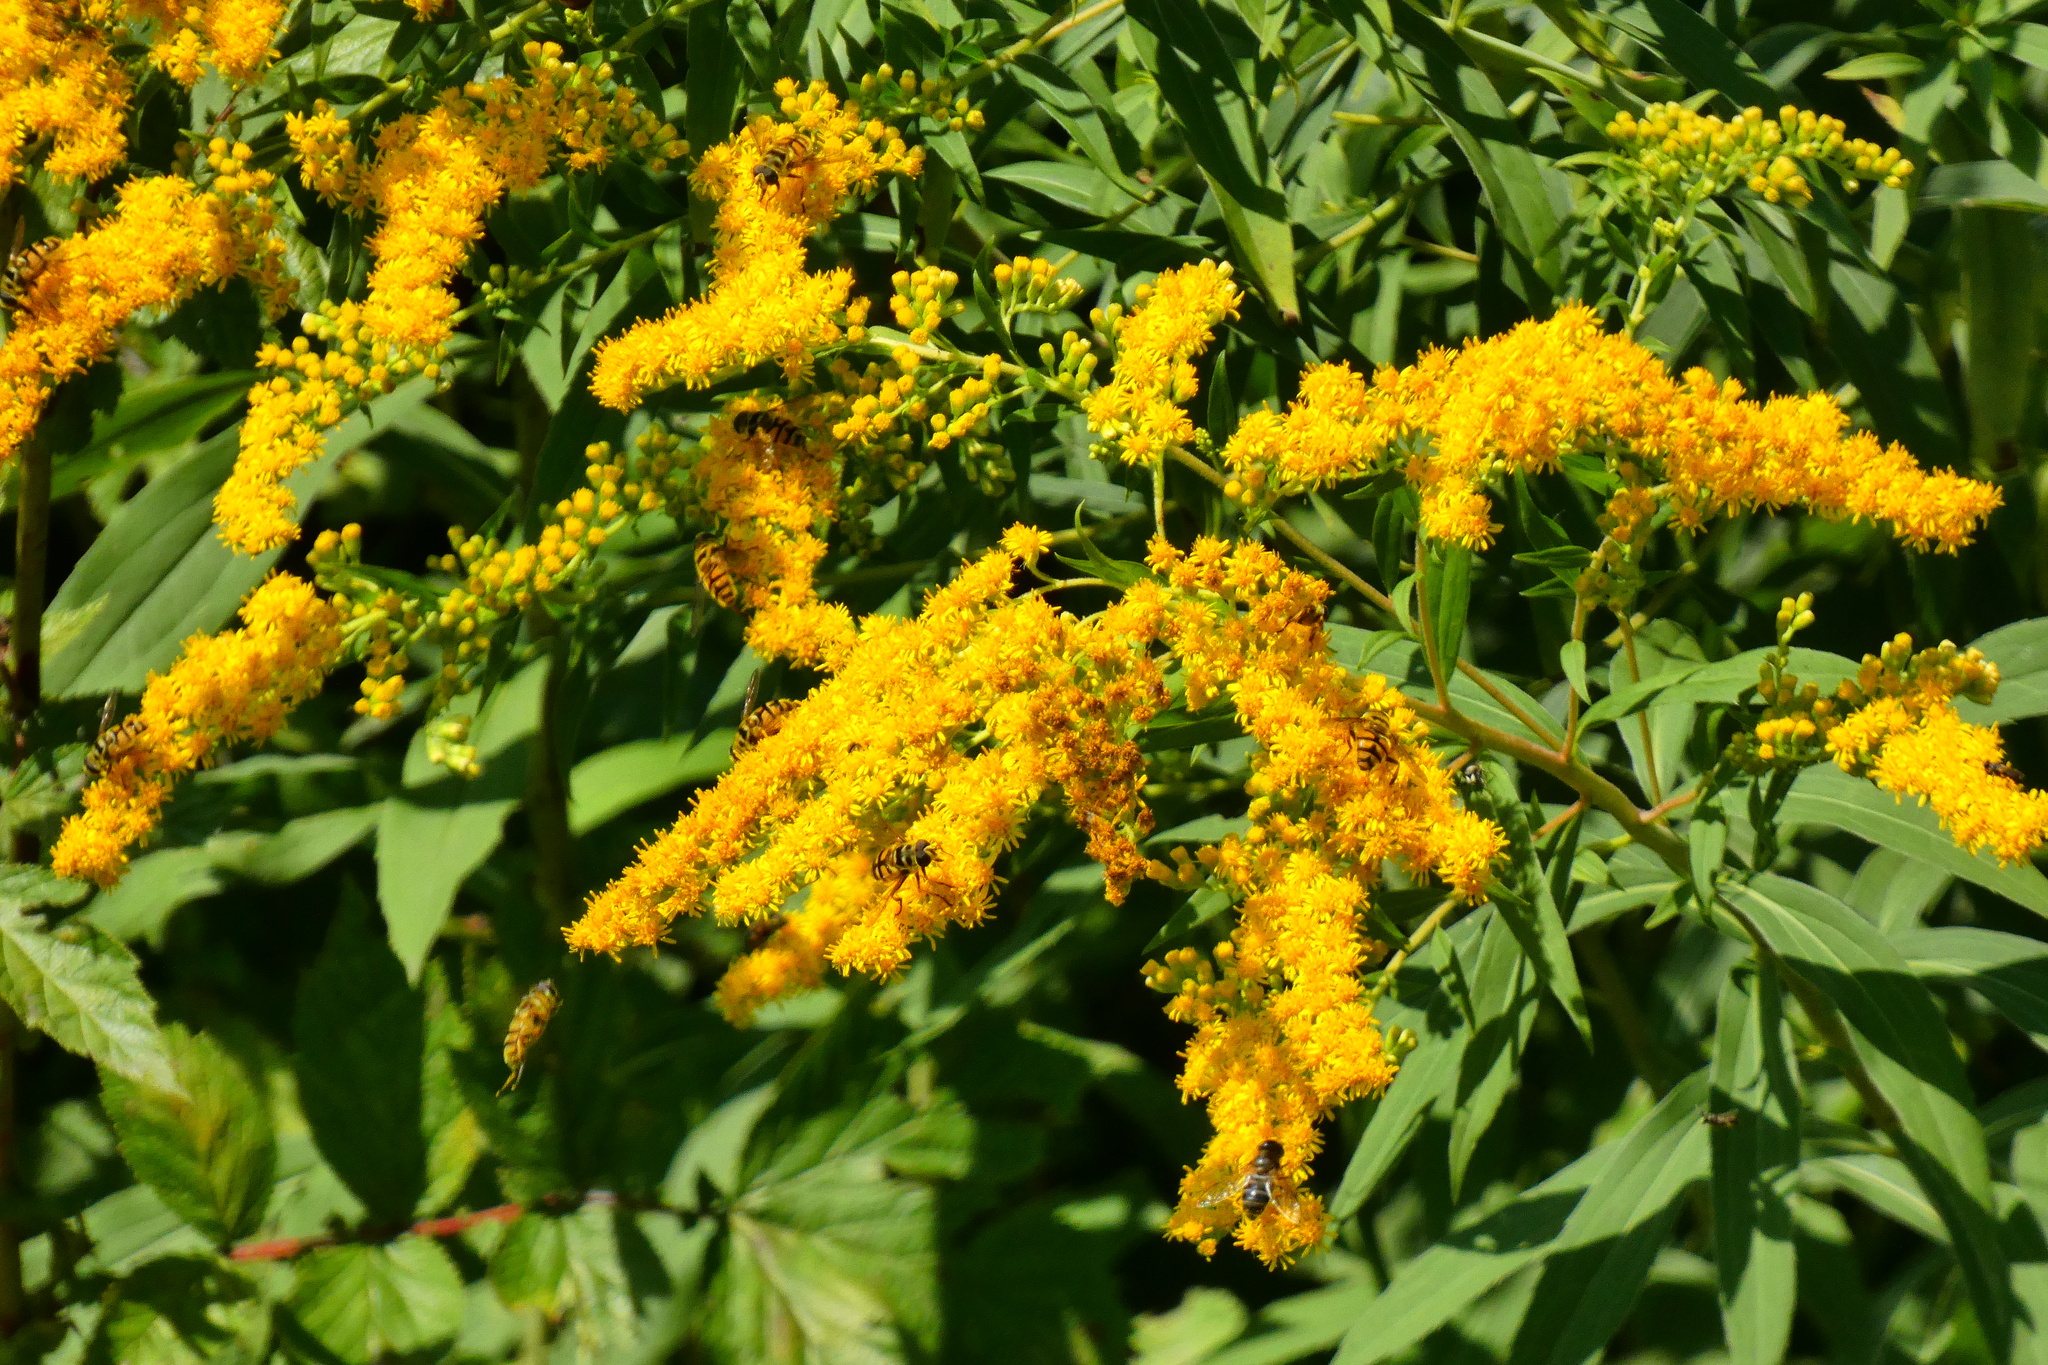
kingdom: Plantae
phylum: Tracheophyta
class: Magnoliopsida
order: Asterales
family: Asteraceae
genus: Solidago
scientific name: Solidago gigantea
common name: Giant goldenrod
